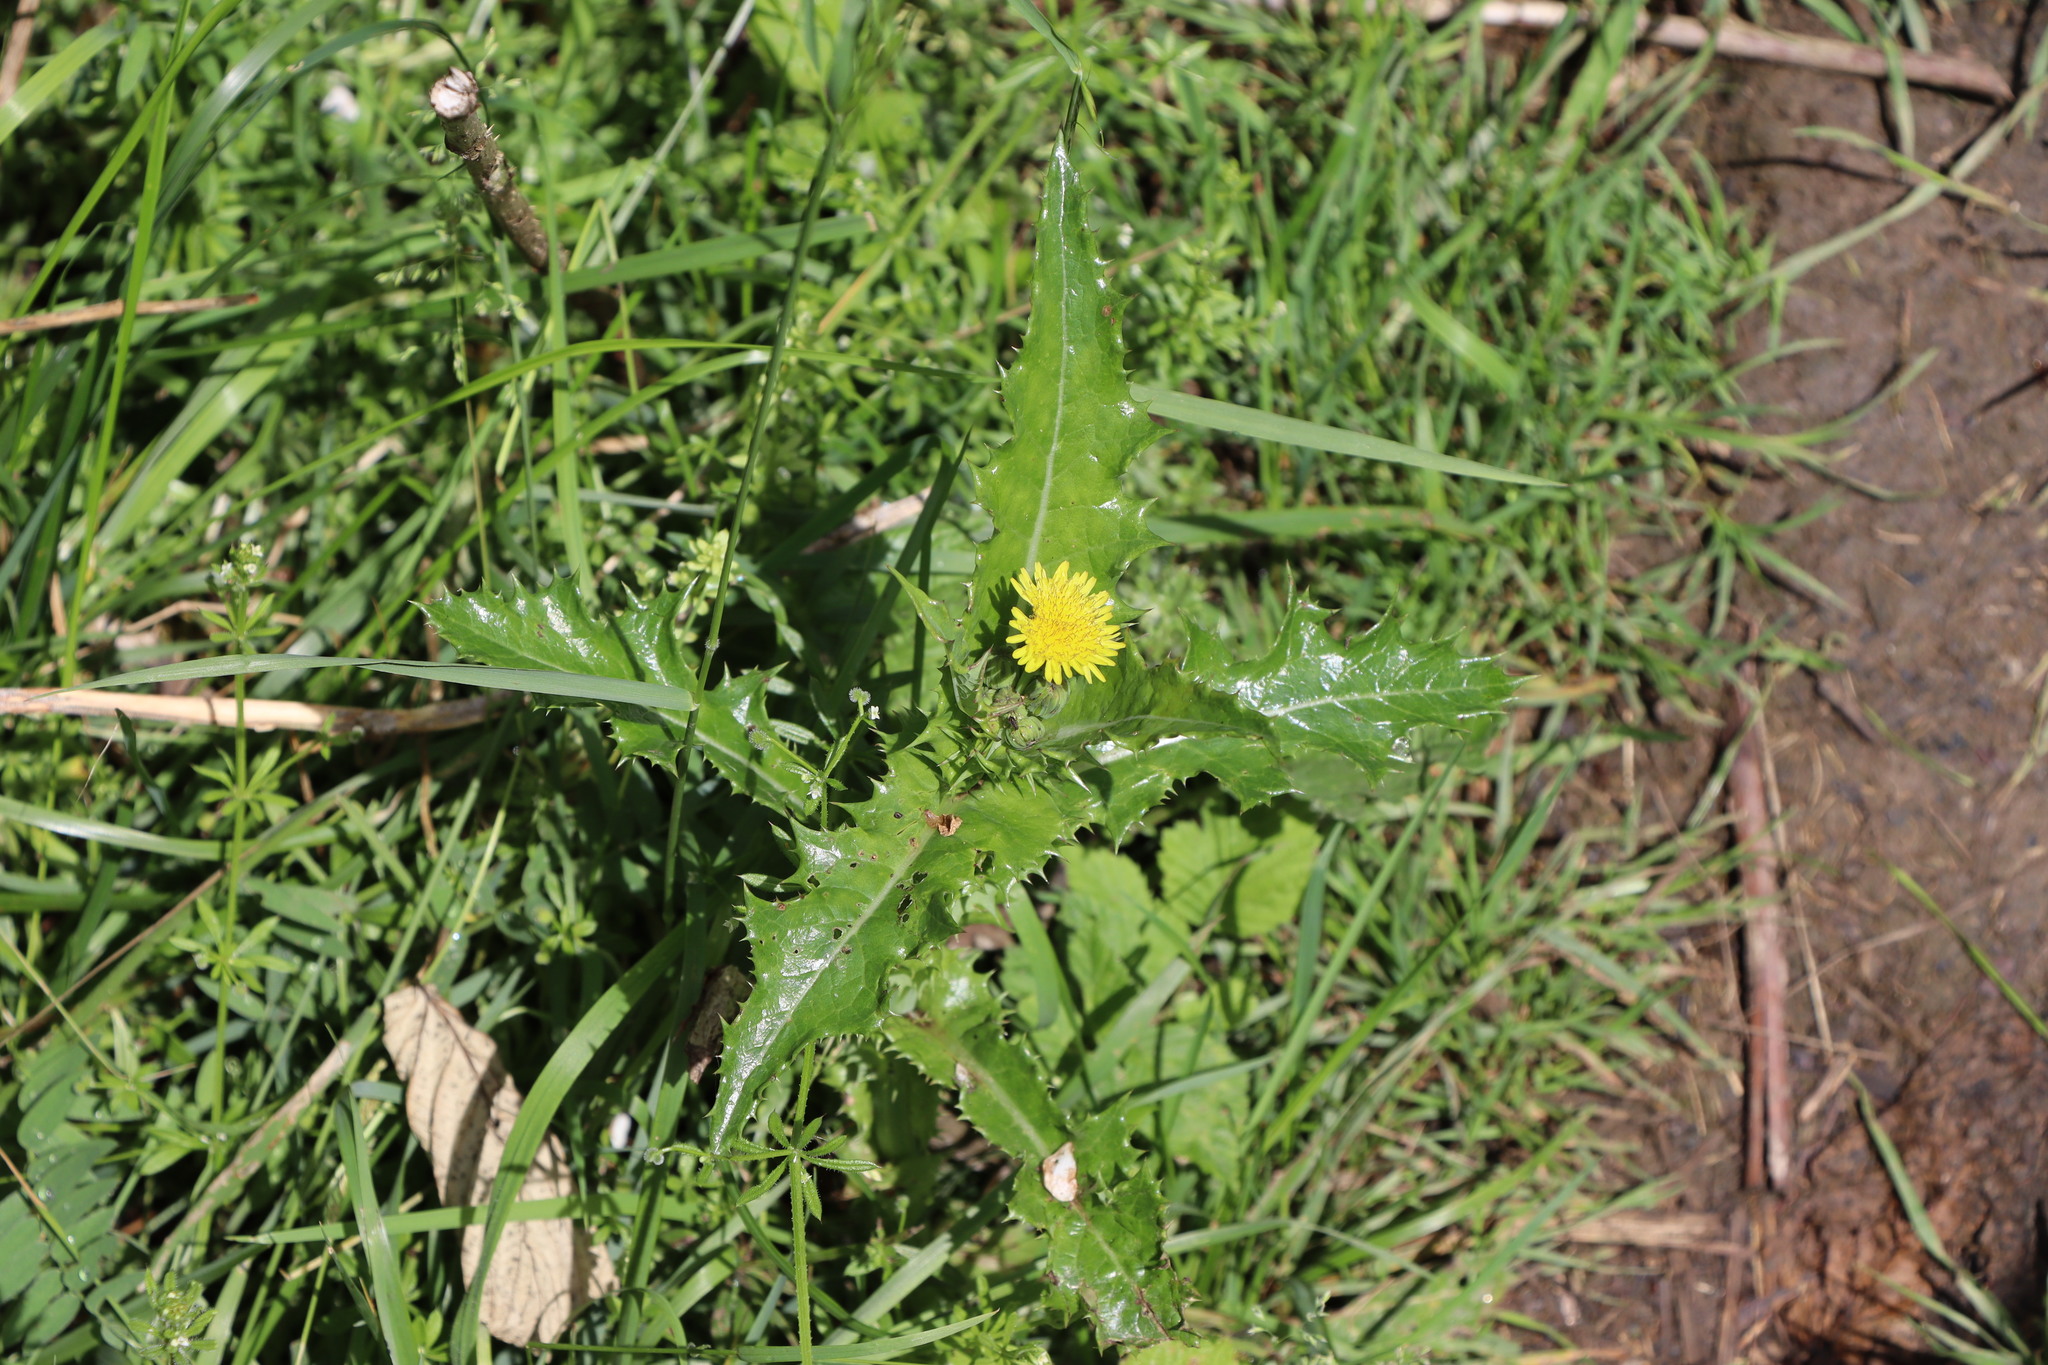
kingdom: Plantae
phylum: Tracheophyta
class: Magnoliopsida
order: Asterales
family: Asteraceae
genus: Sonchus
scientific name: Sonchus asper
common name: Prickly sow-thistle
